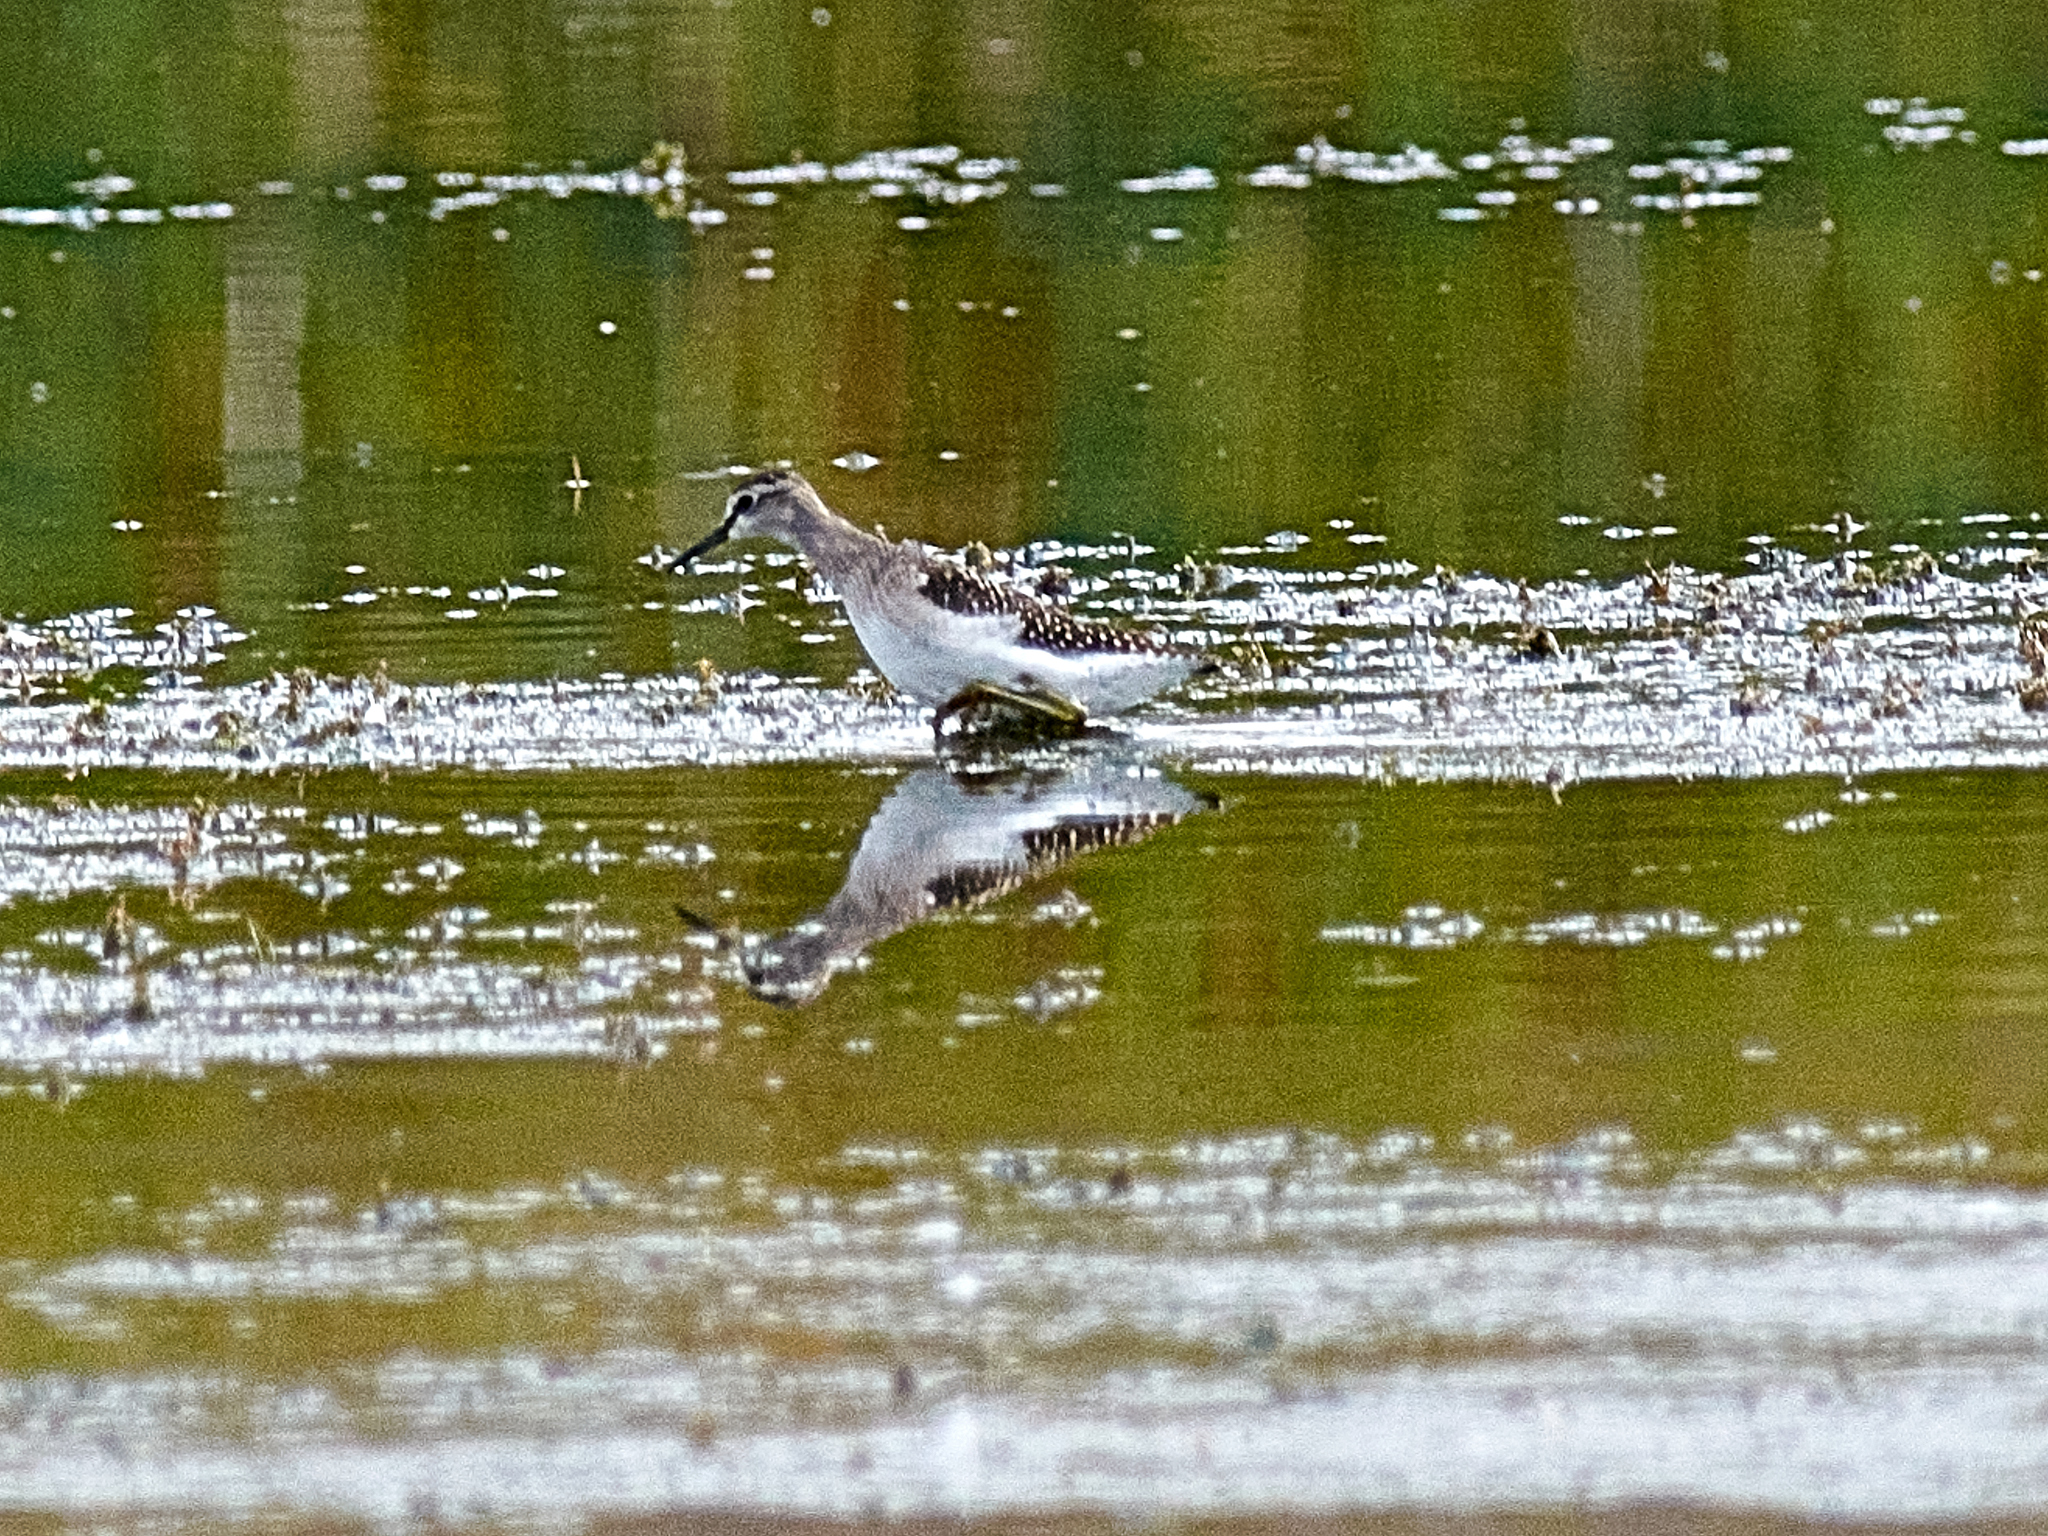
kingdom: Animalia
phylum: Chordata
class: Aves
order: Charadriiformes
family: Scolopacidae
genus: Tringa
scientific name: Tringa glareola
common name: Wood sandpiper
